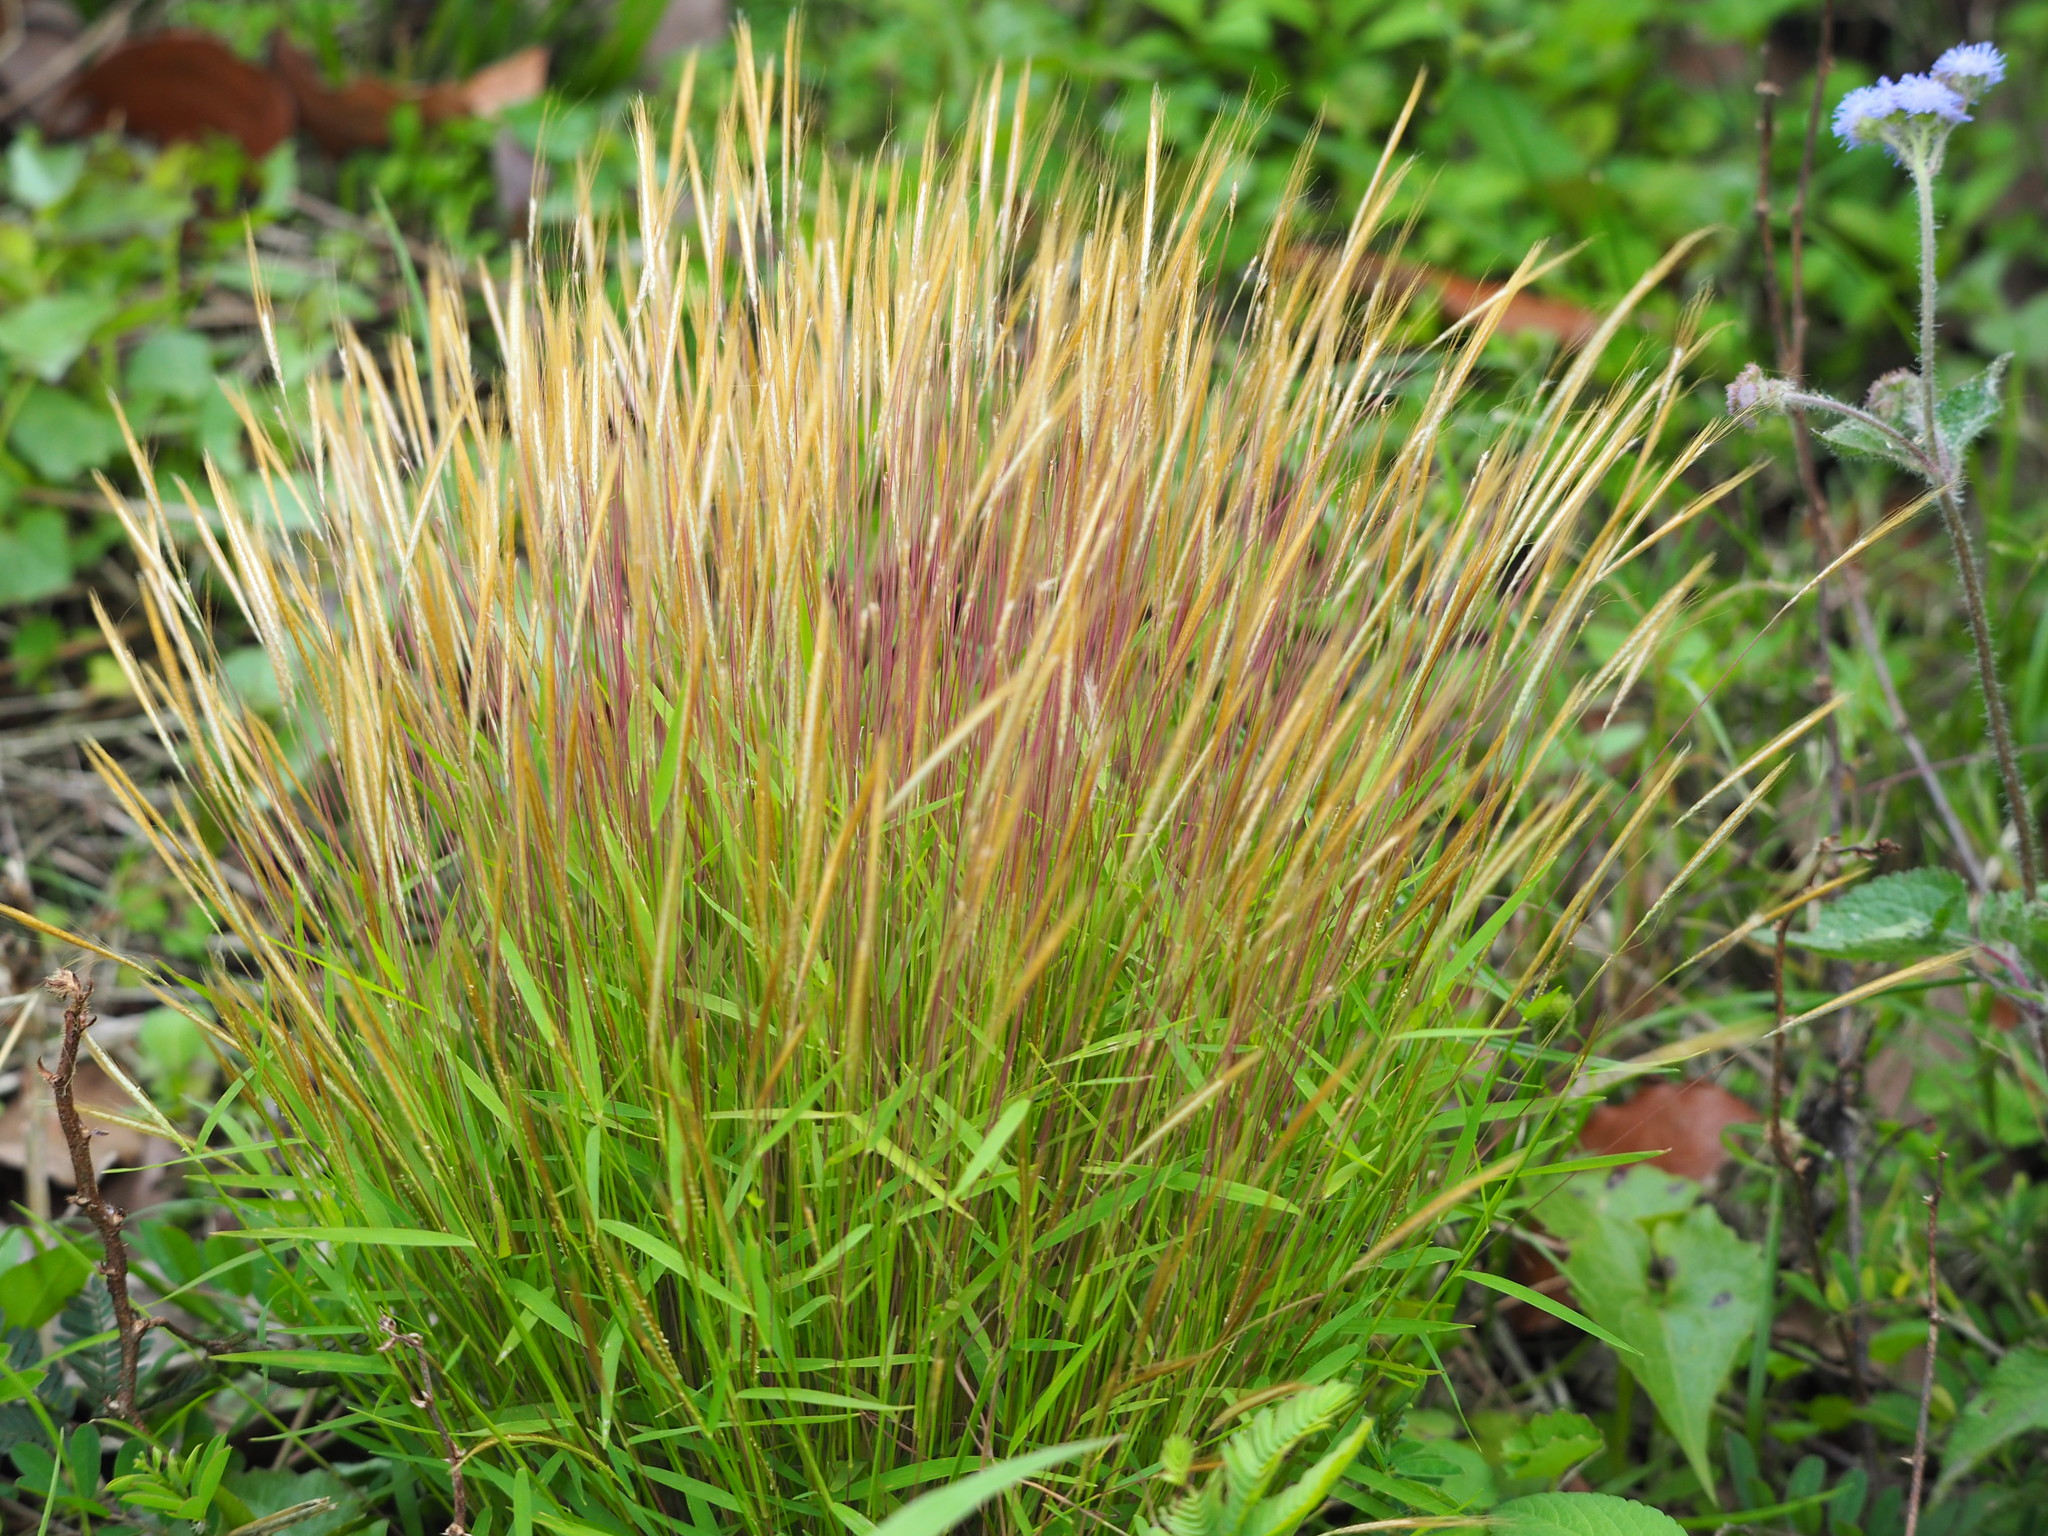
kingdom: Plantae
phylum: Tracheophyta
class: Liliopsida
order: Poales
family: Poaceae
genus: Pogonatherum
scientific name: Pogonatherum crinitum
